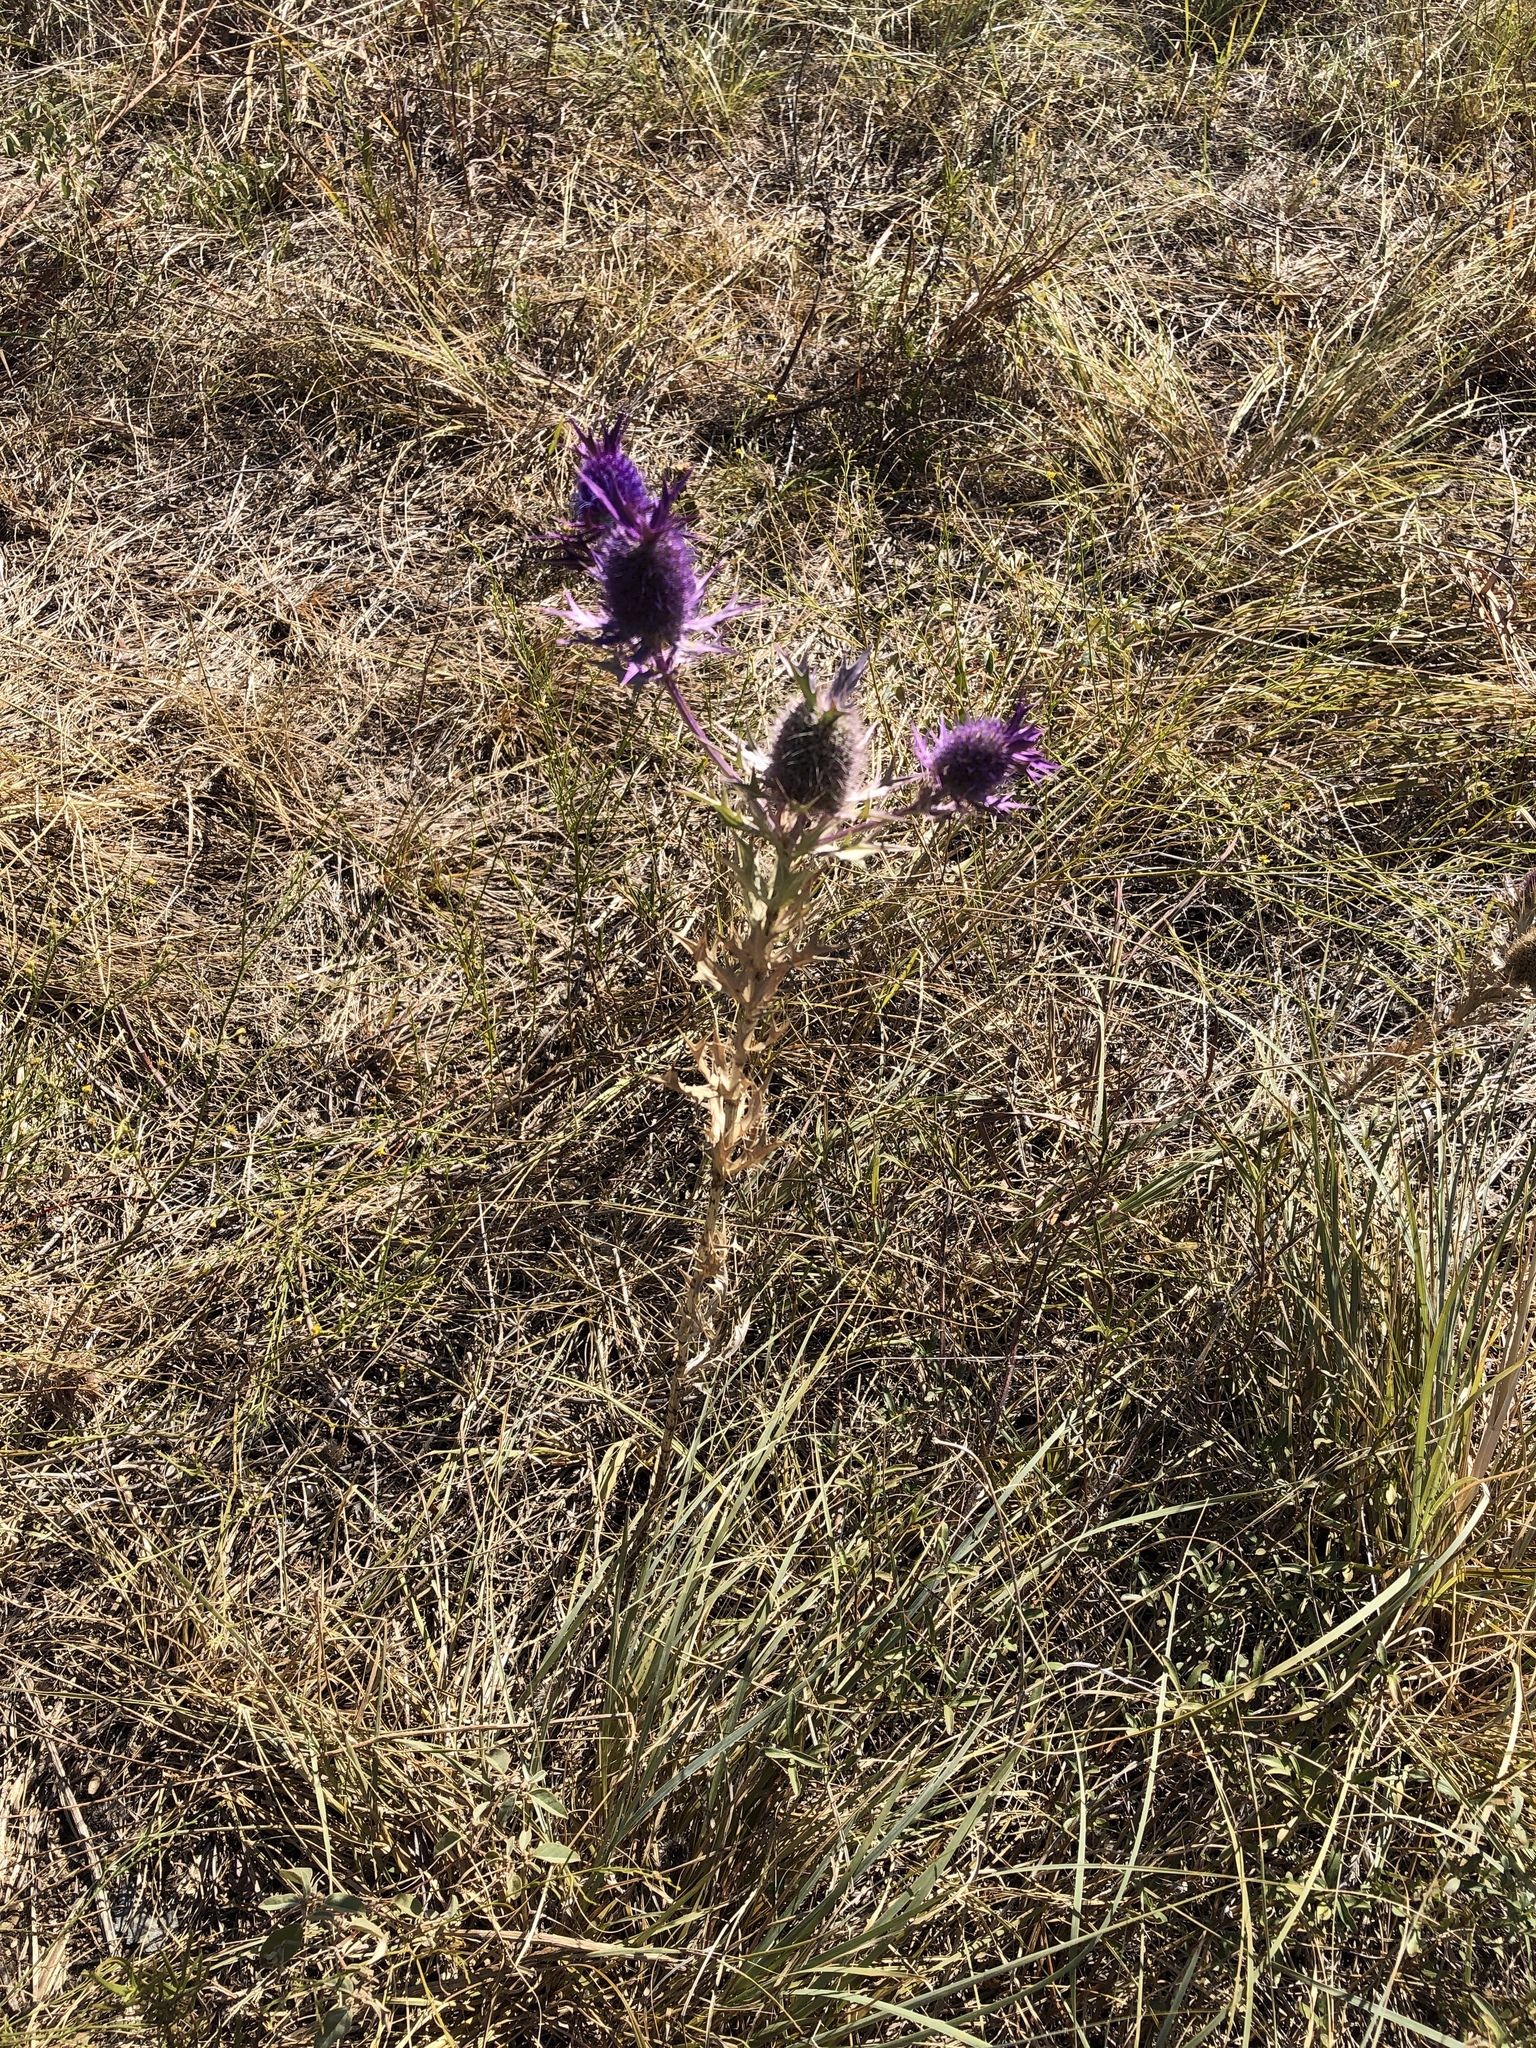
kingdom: Plantae
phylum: Tracheophyta
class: Magnoliopsida
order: Apiales
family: Apiaceae
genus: Eryngium
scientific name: Eryngium leavenworthii
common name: Leavenworth's eryngo
